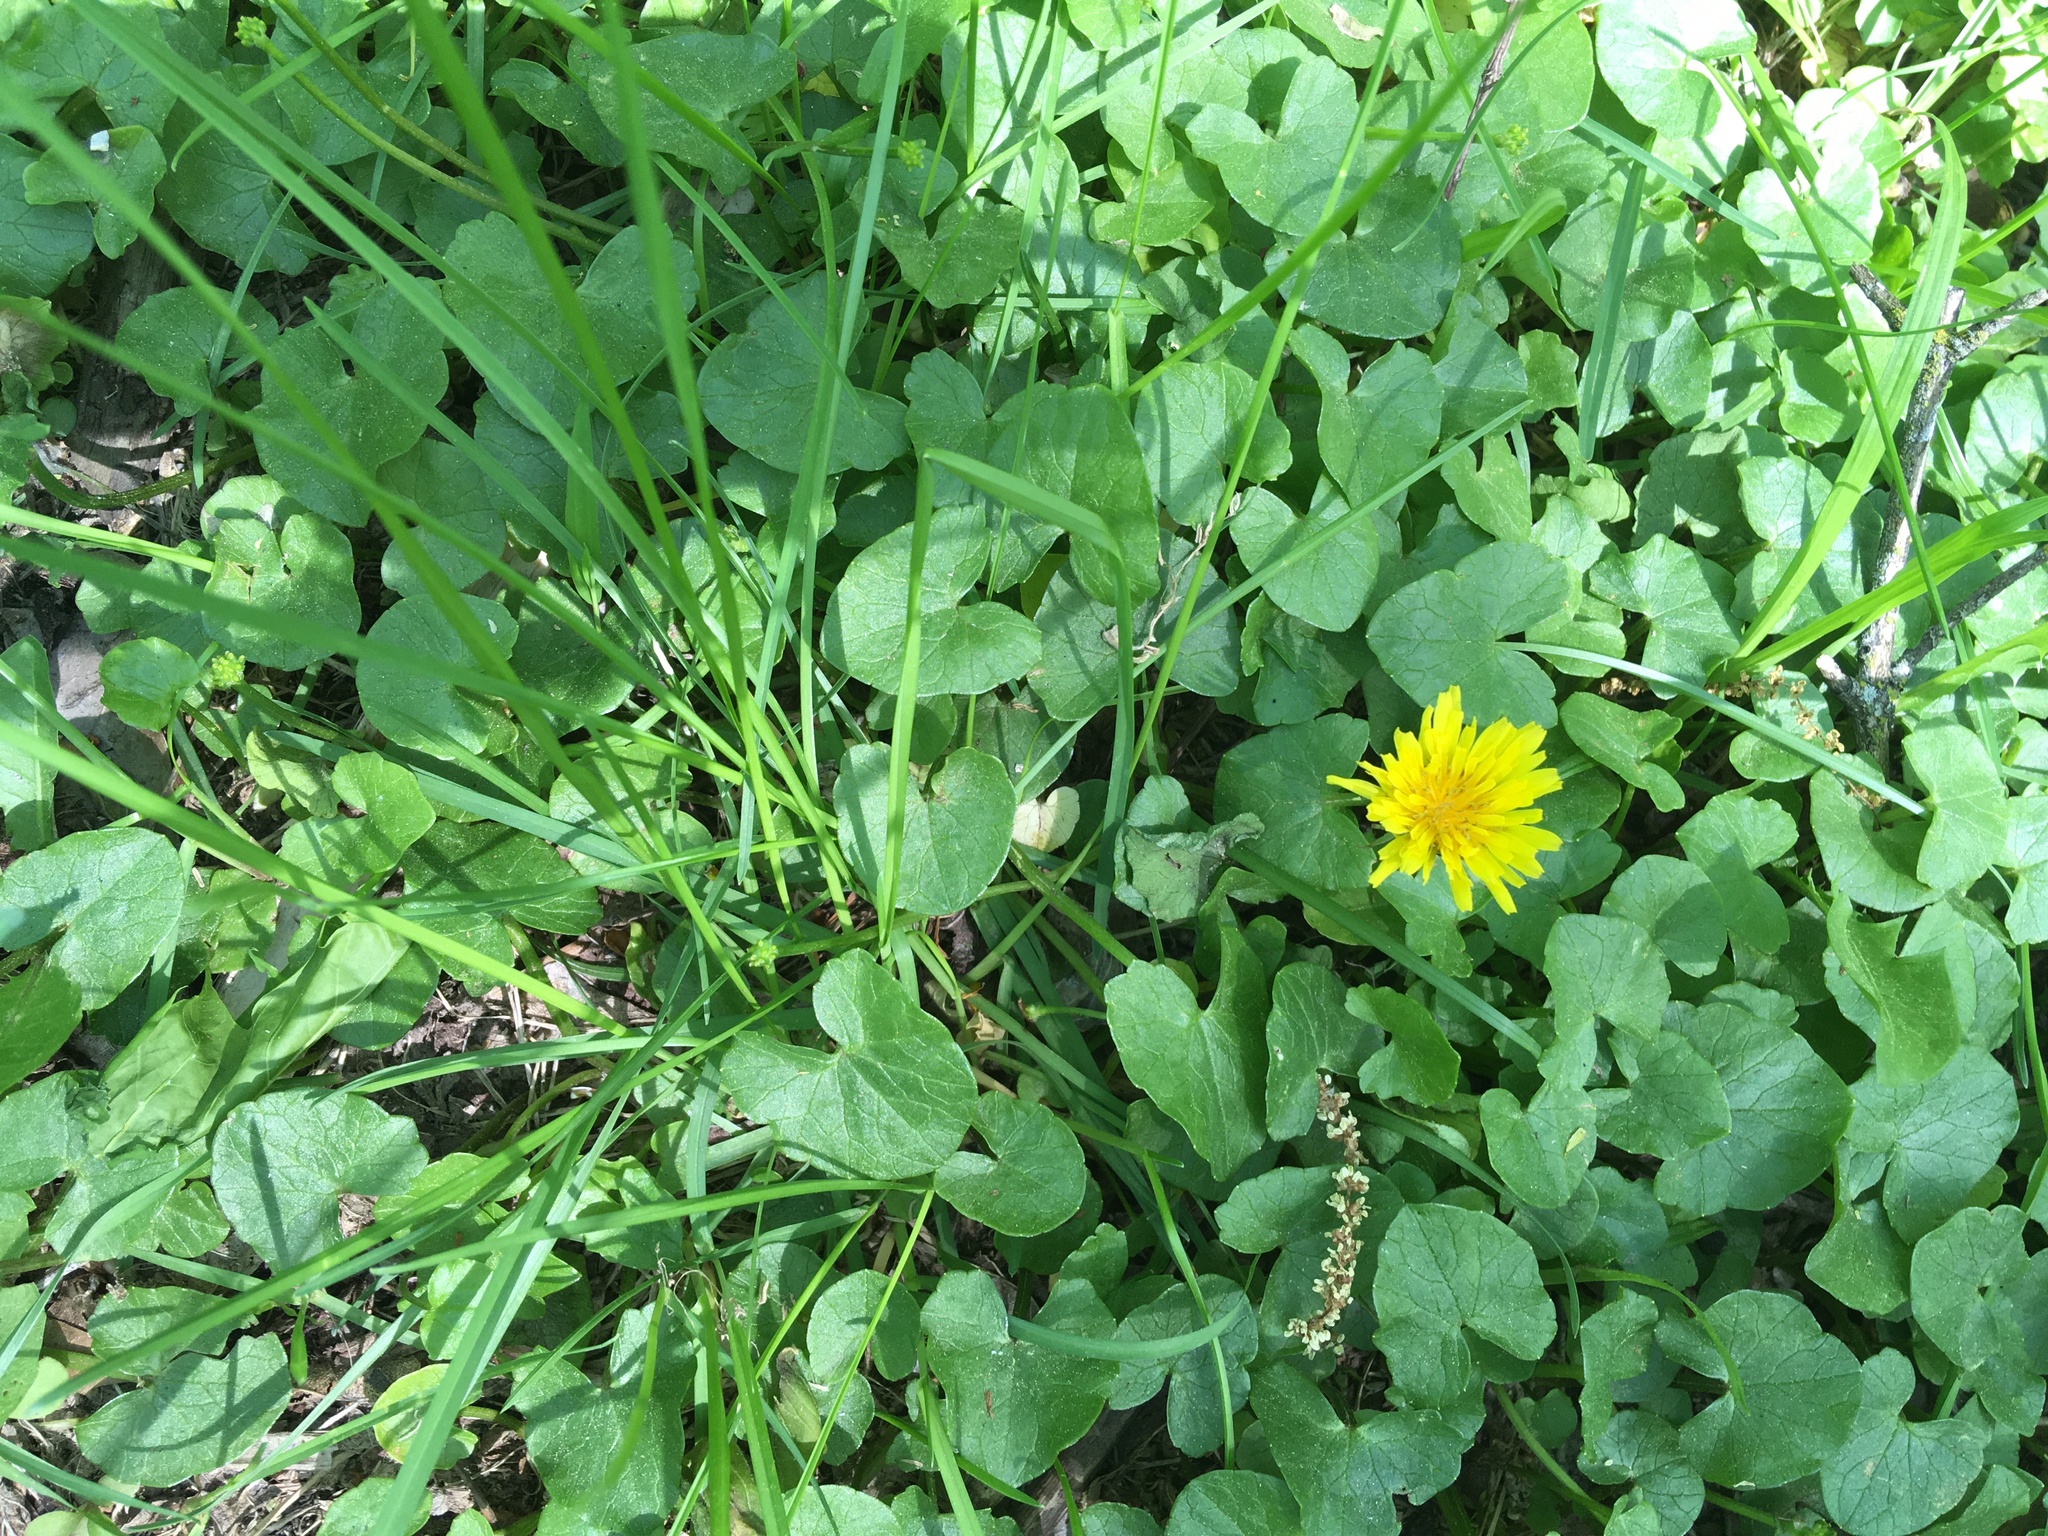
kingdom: Plantae
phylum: Tracheophyta
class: Magnoliopsida
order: Ranunculales
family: Ranunculaceae
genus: Ficaria
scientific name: Ficaria verna
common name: Lesser celandine
